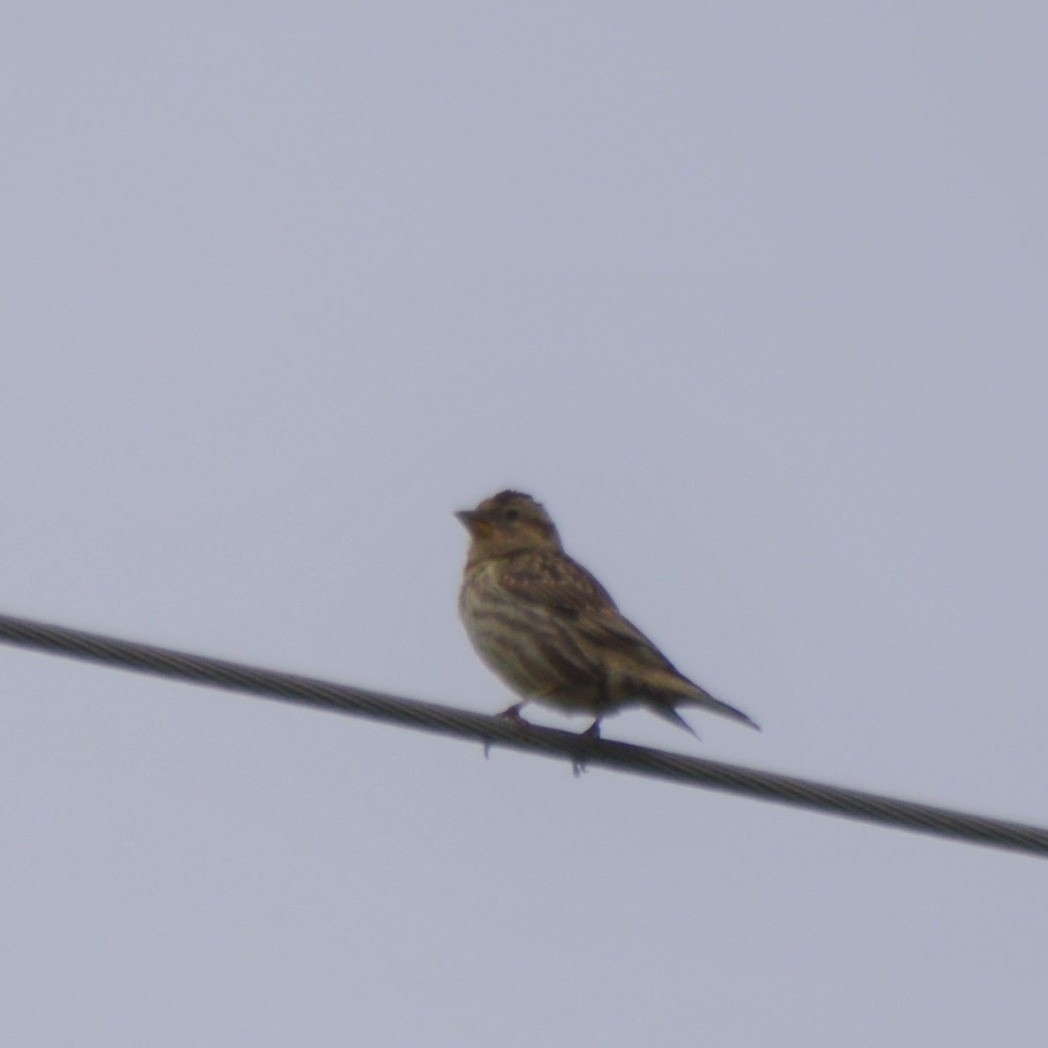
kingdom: Animalia
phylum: Chordata
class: Aves
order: Passeriformes
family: Passeridae
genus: Petronia
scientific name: Petronia petronia
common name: Rock sparrow
